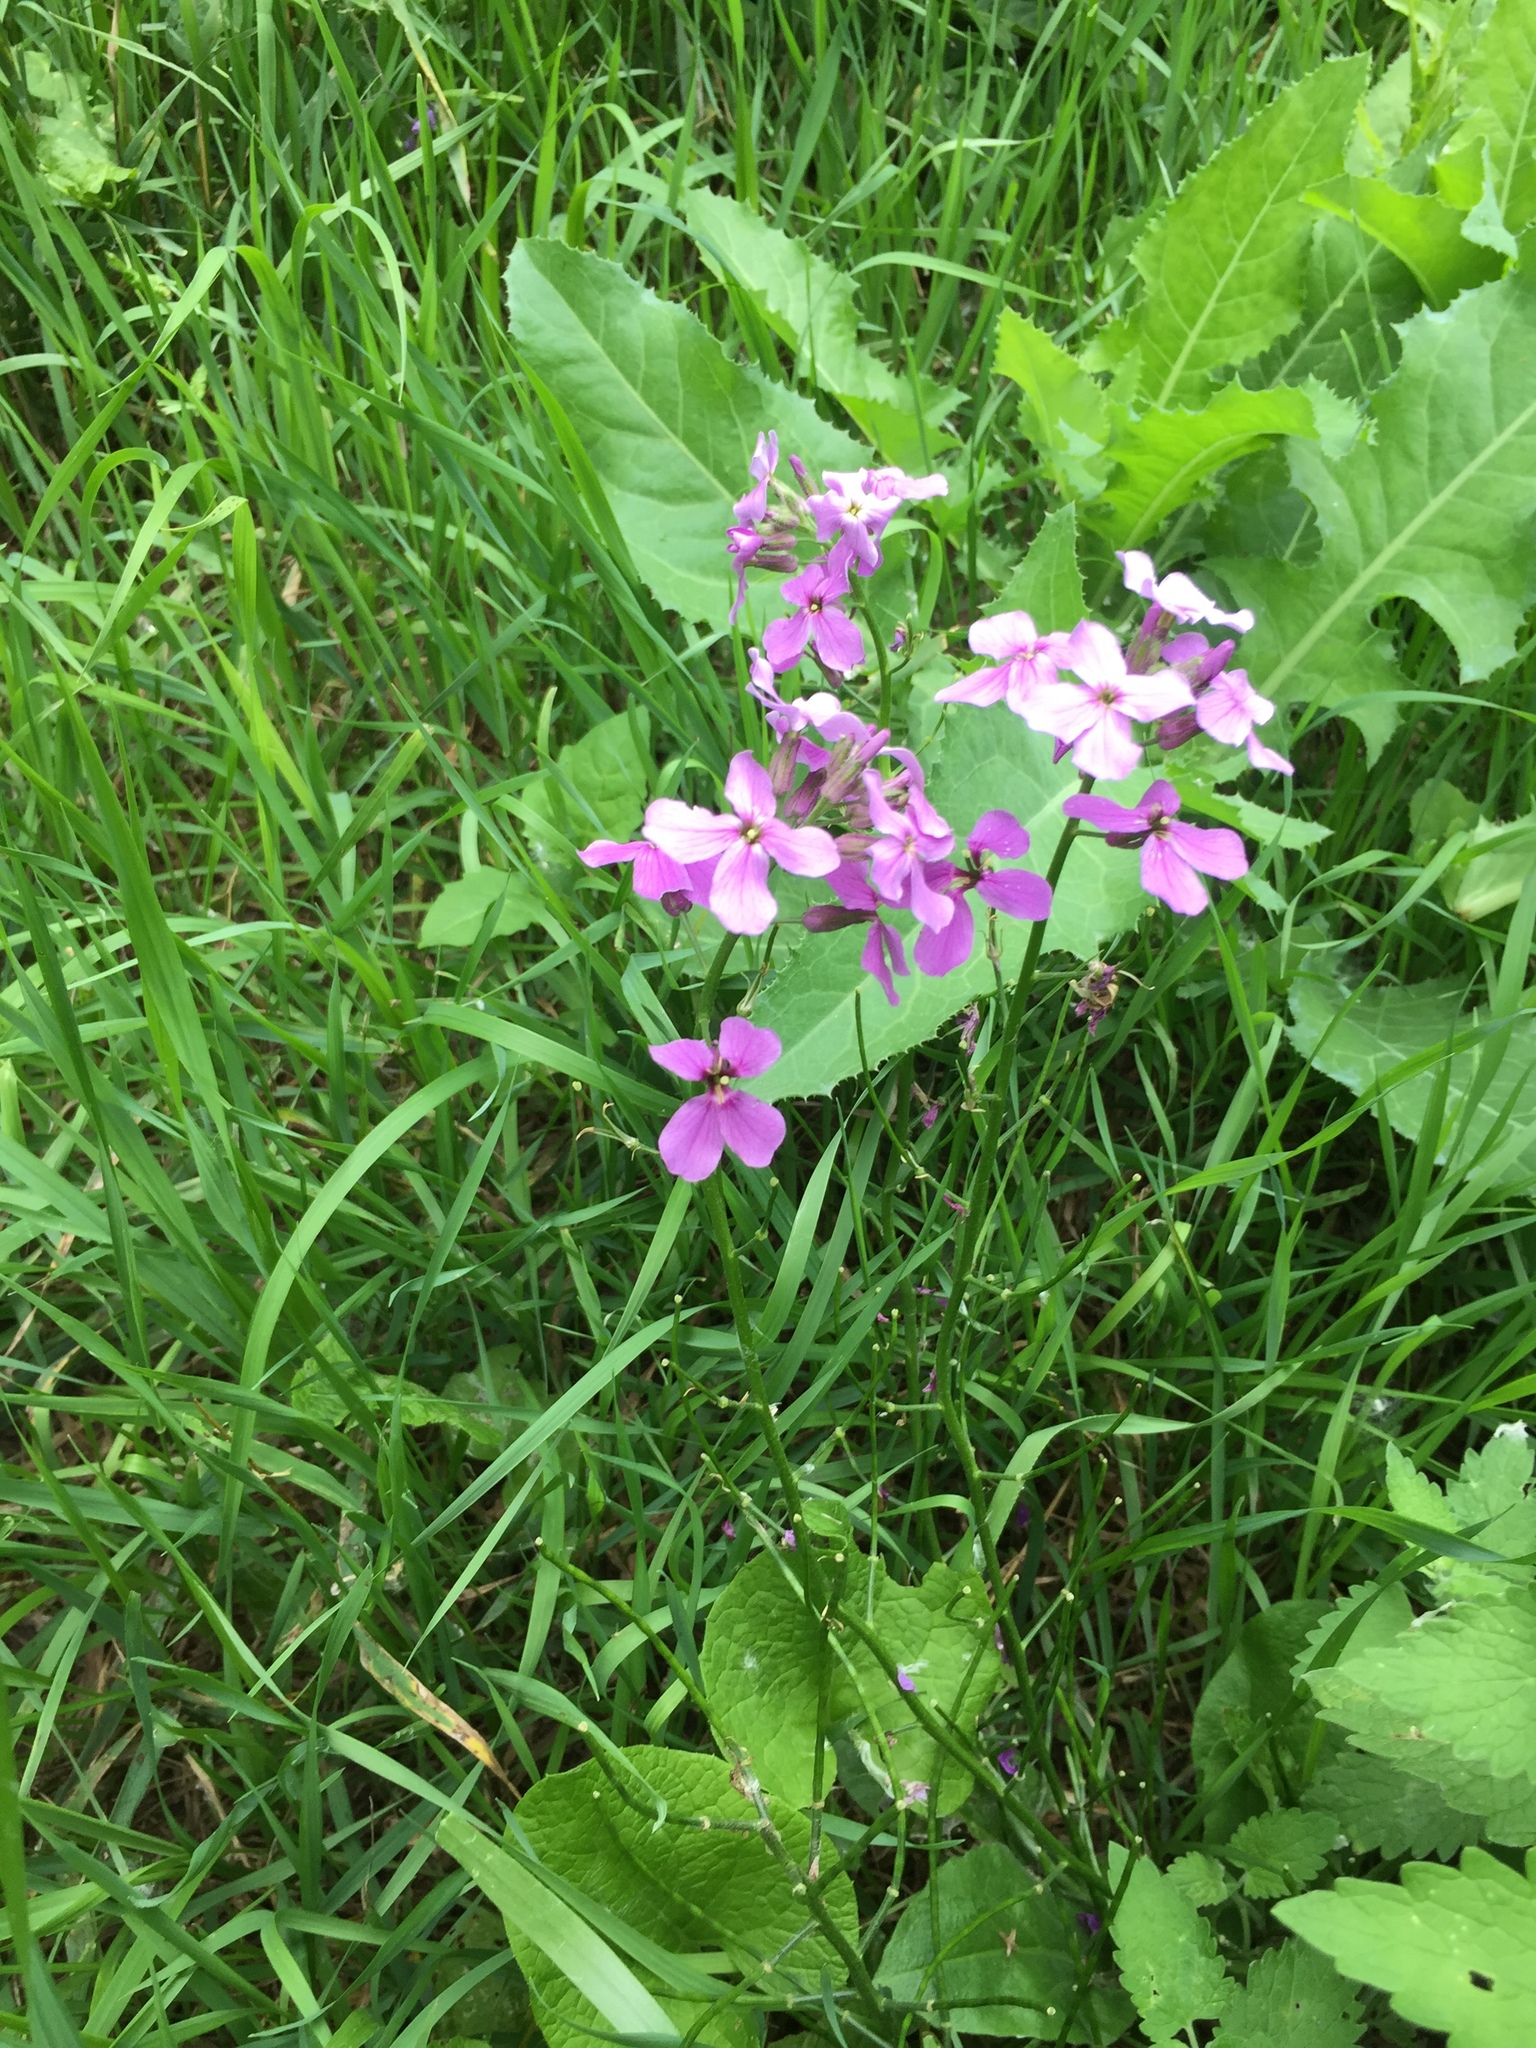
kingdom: Plantae
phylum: Tracheophyta
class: Magnoliopsida
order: Brassicales
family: Brassicaceae
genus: Hesperis
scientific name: Hesperis matronalis
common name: Dame's-violet
